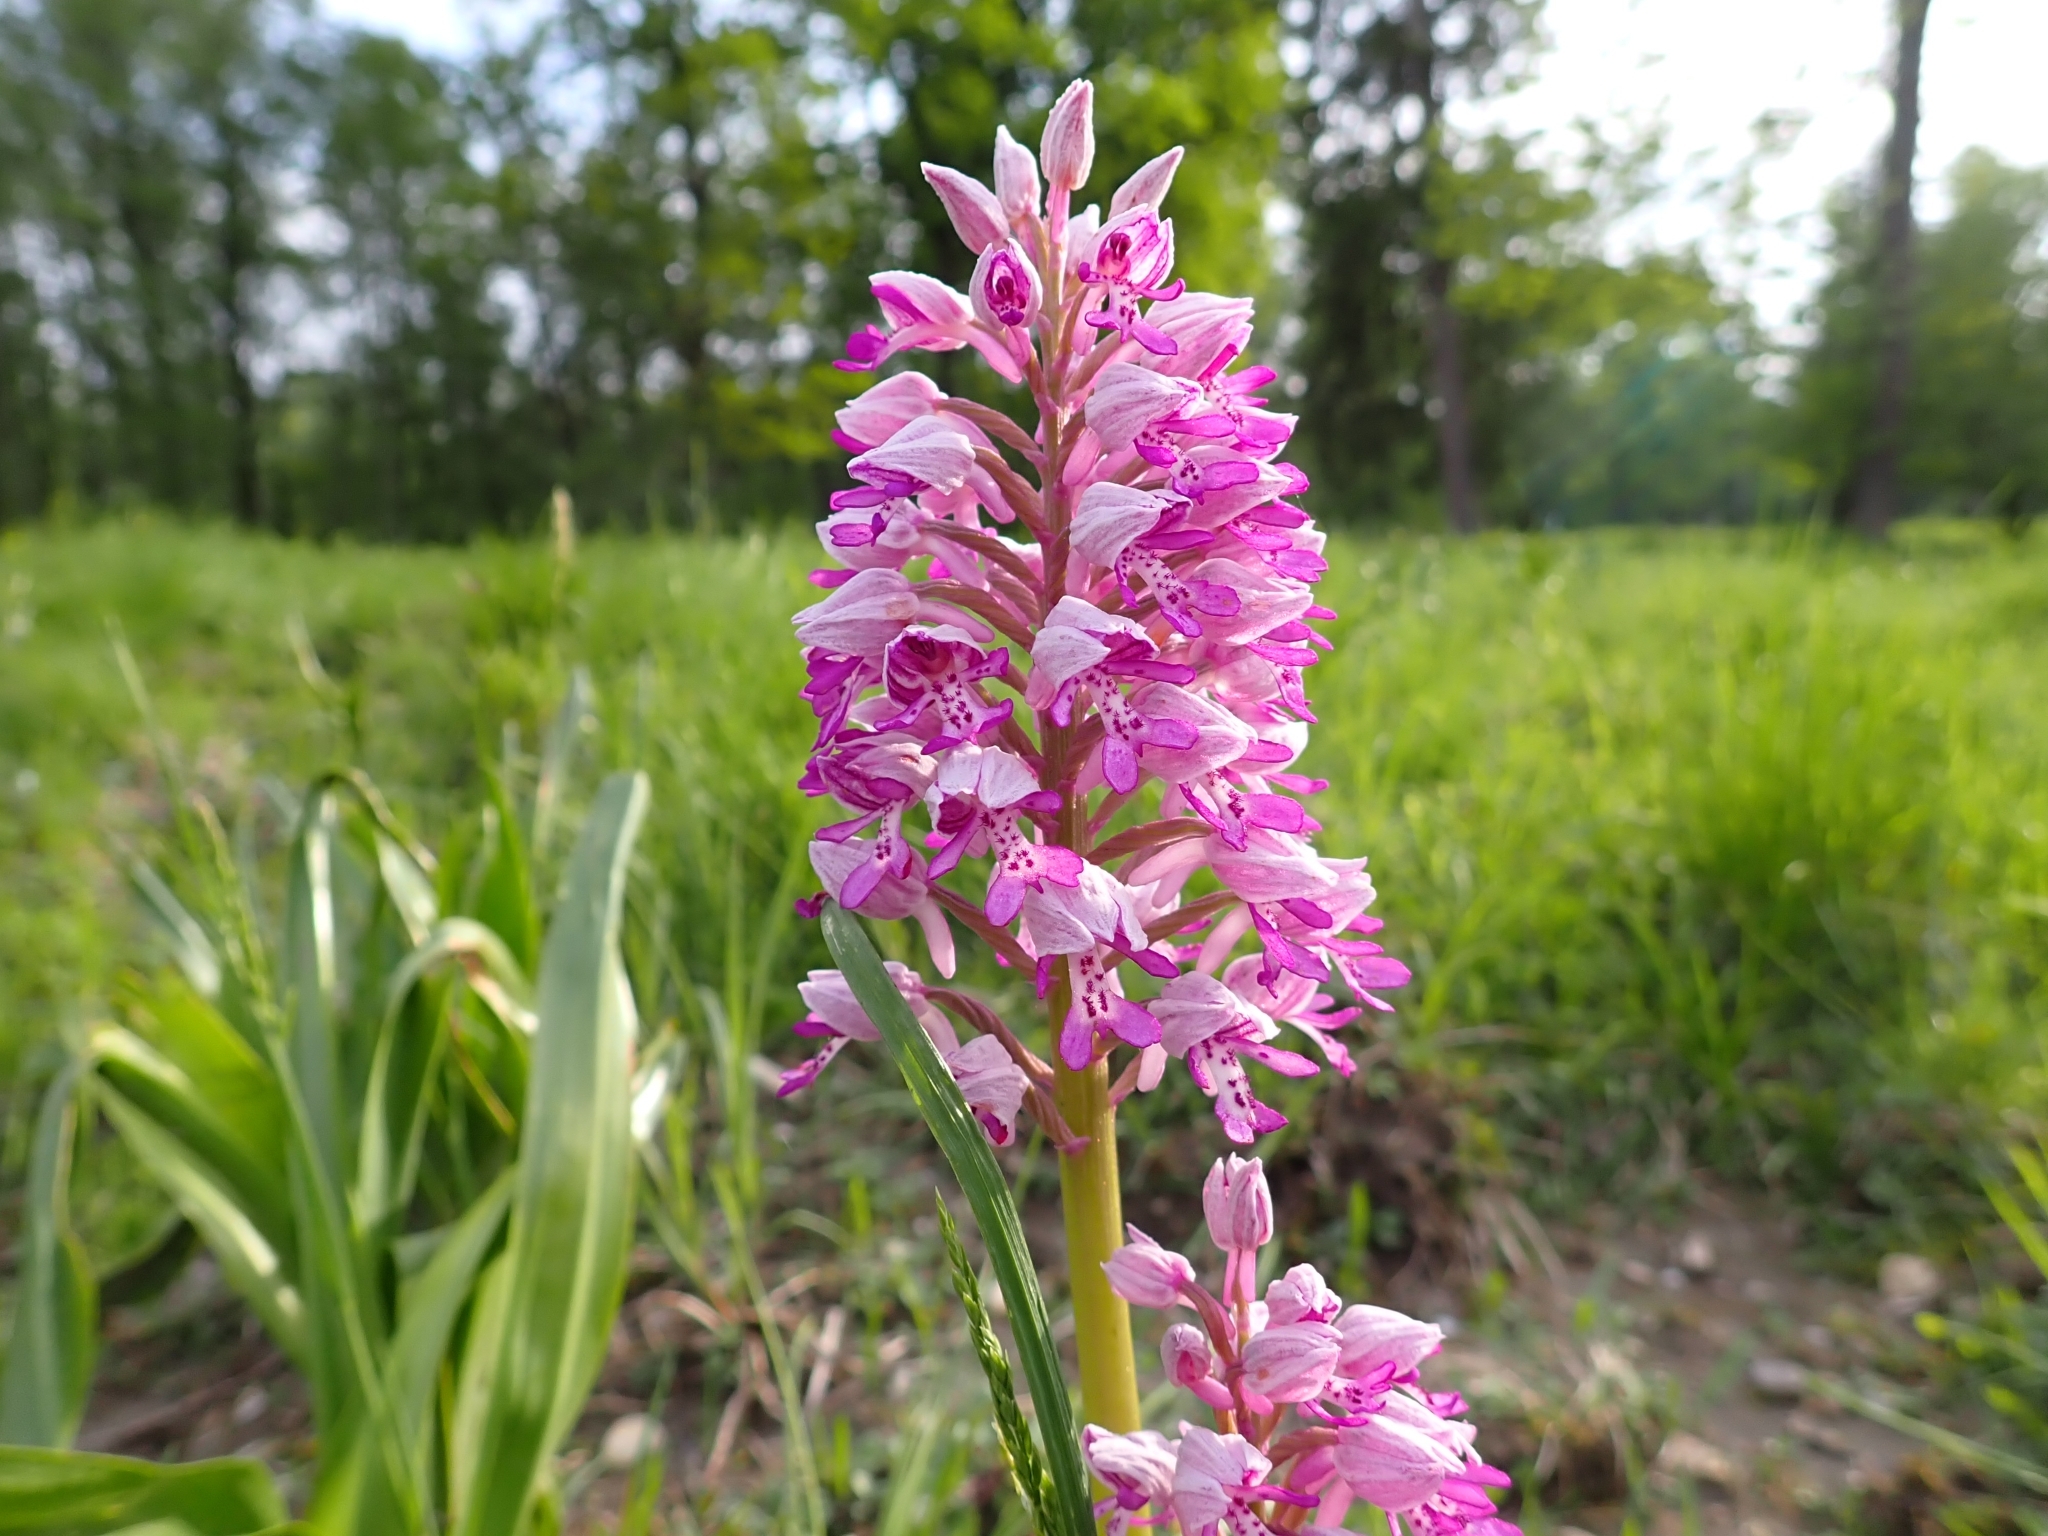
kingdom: Plantae
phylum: Tracheophyta
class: Liliopsida
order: Asparagales
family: Orchidaceae
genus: Orchis
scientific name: Orchis militaris
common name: Military orchid
